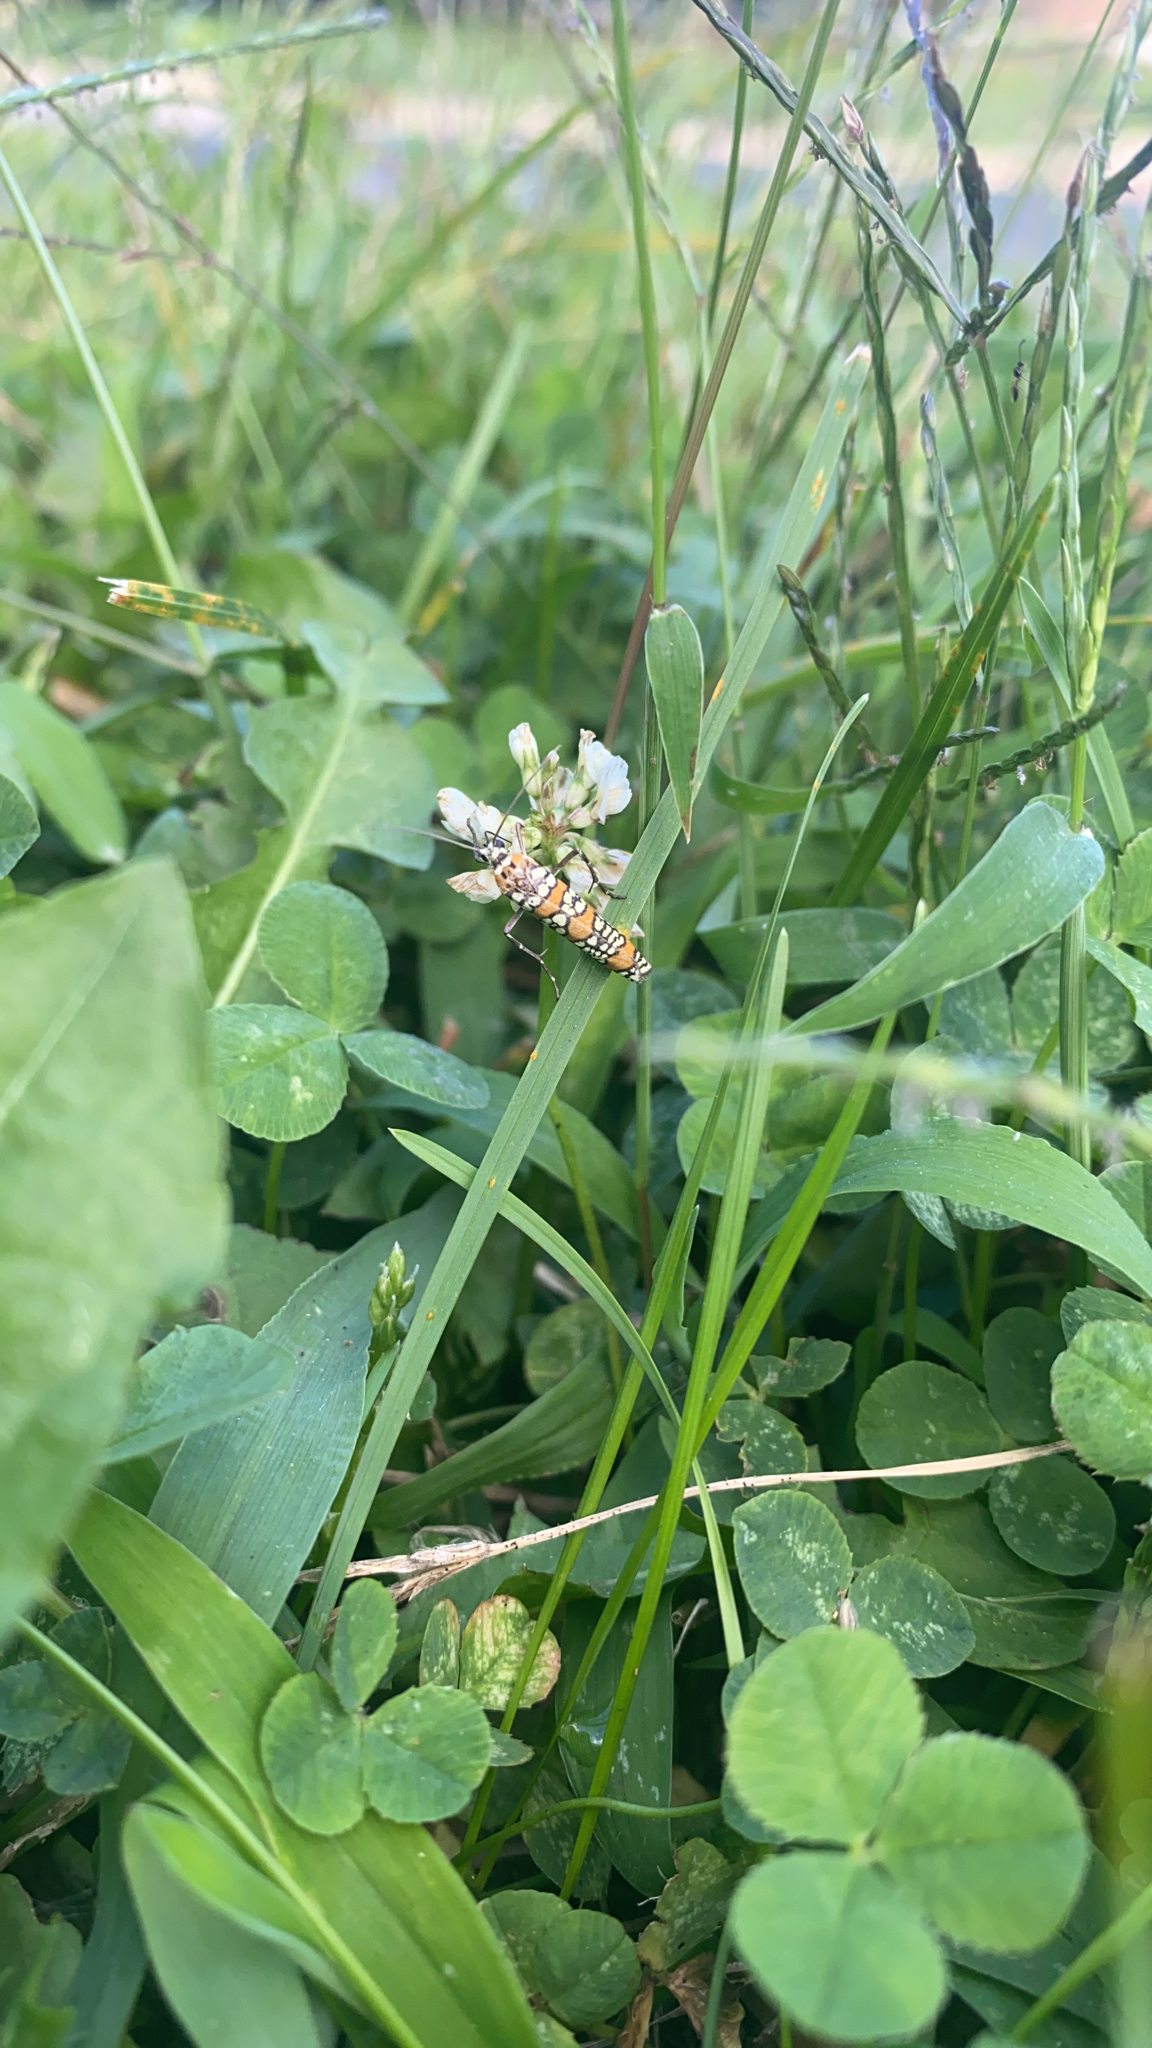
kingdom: Animalia
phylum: Arthropoda
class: Insecta
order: Lepidoptera
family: Attevidae
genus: Atteva
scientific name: Atteva punctella
